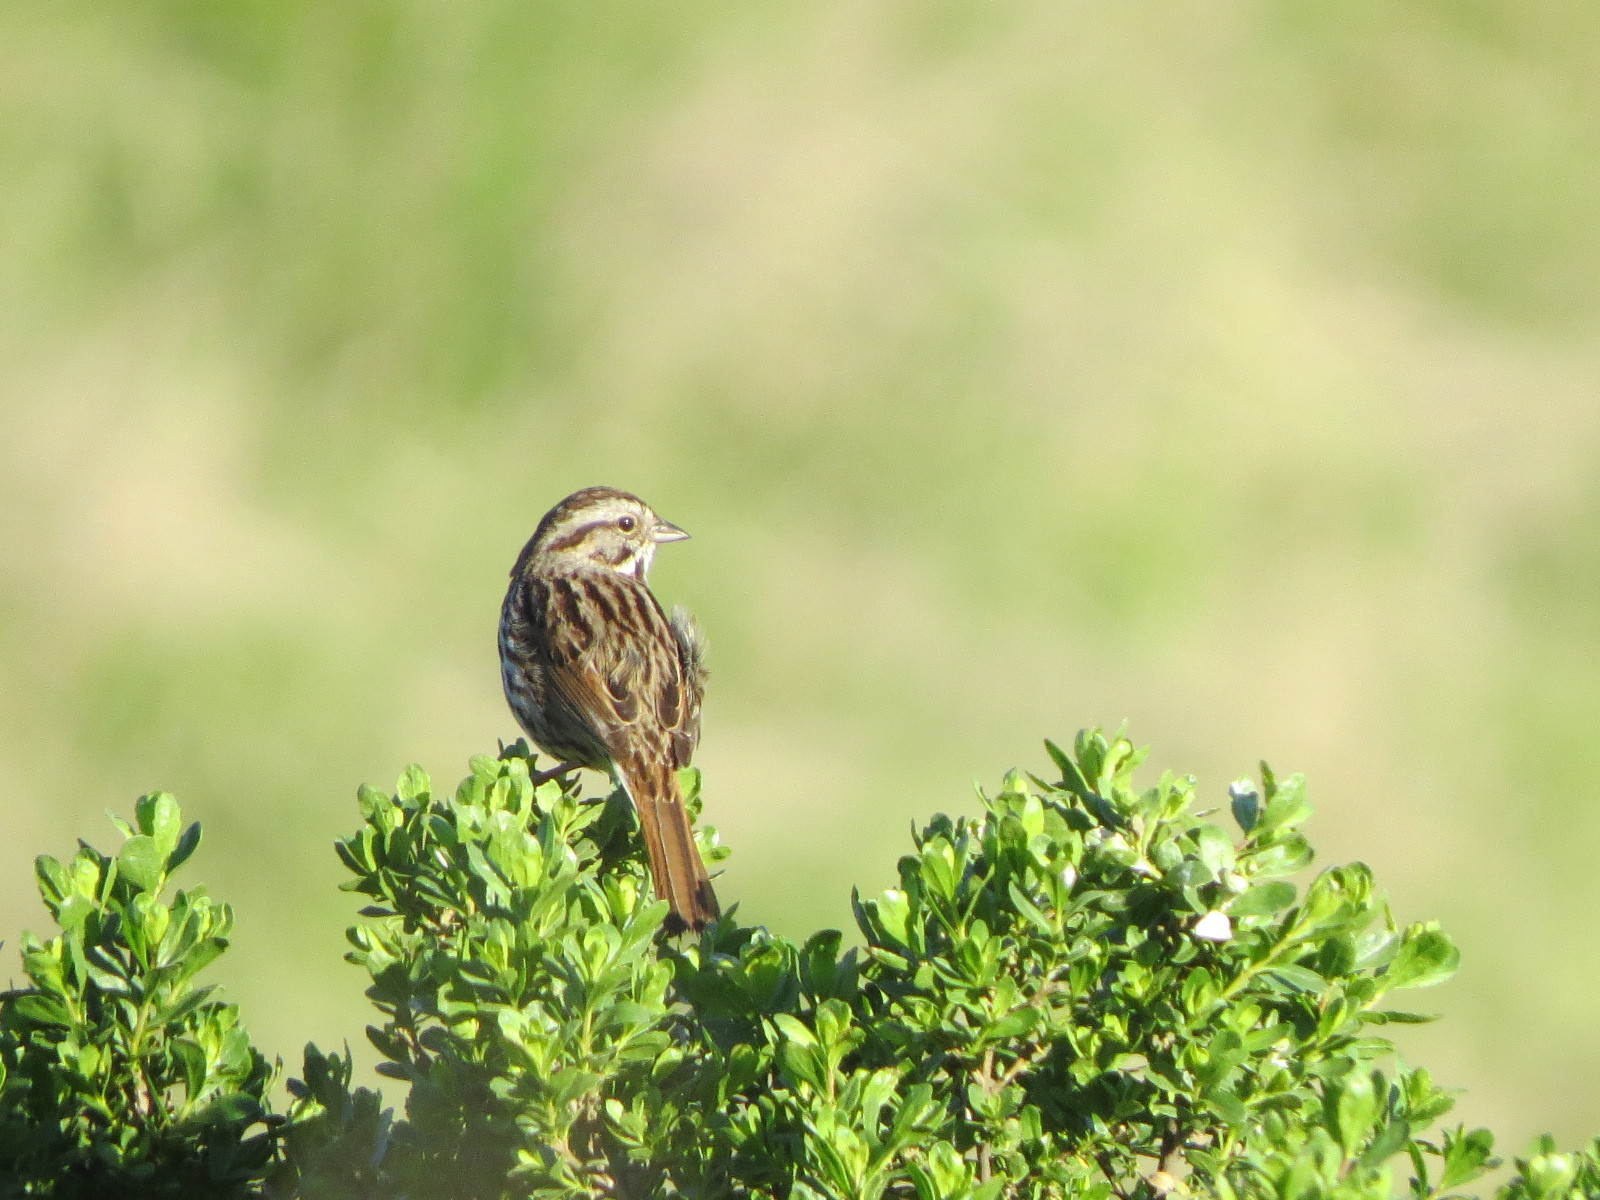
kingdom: Animalia
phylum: Chordata
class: Aves
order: Passeriformes
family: Passerellidae
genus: Melospiza
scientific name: Melospiza melodia
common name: Song sparrow
